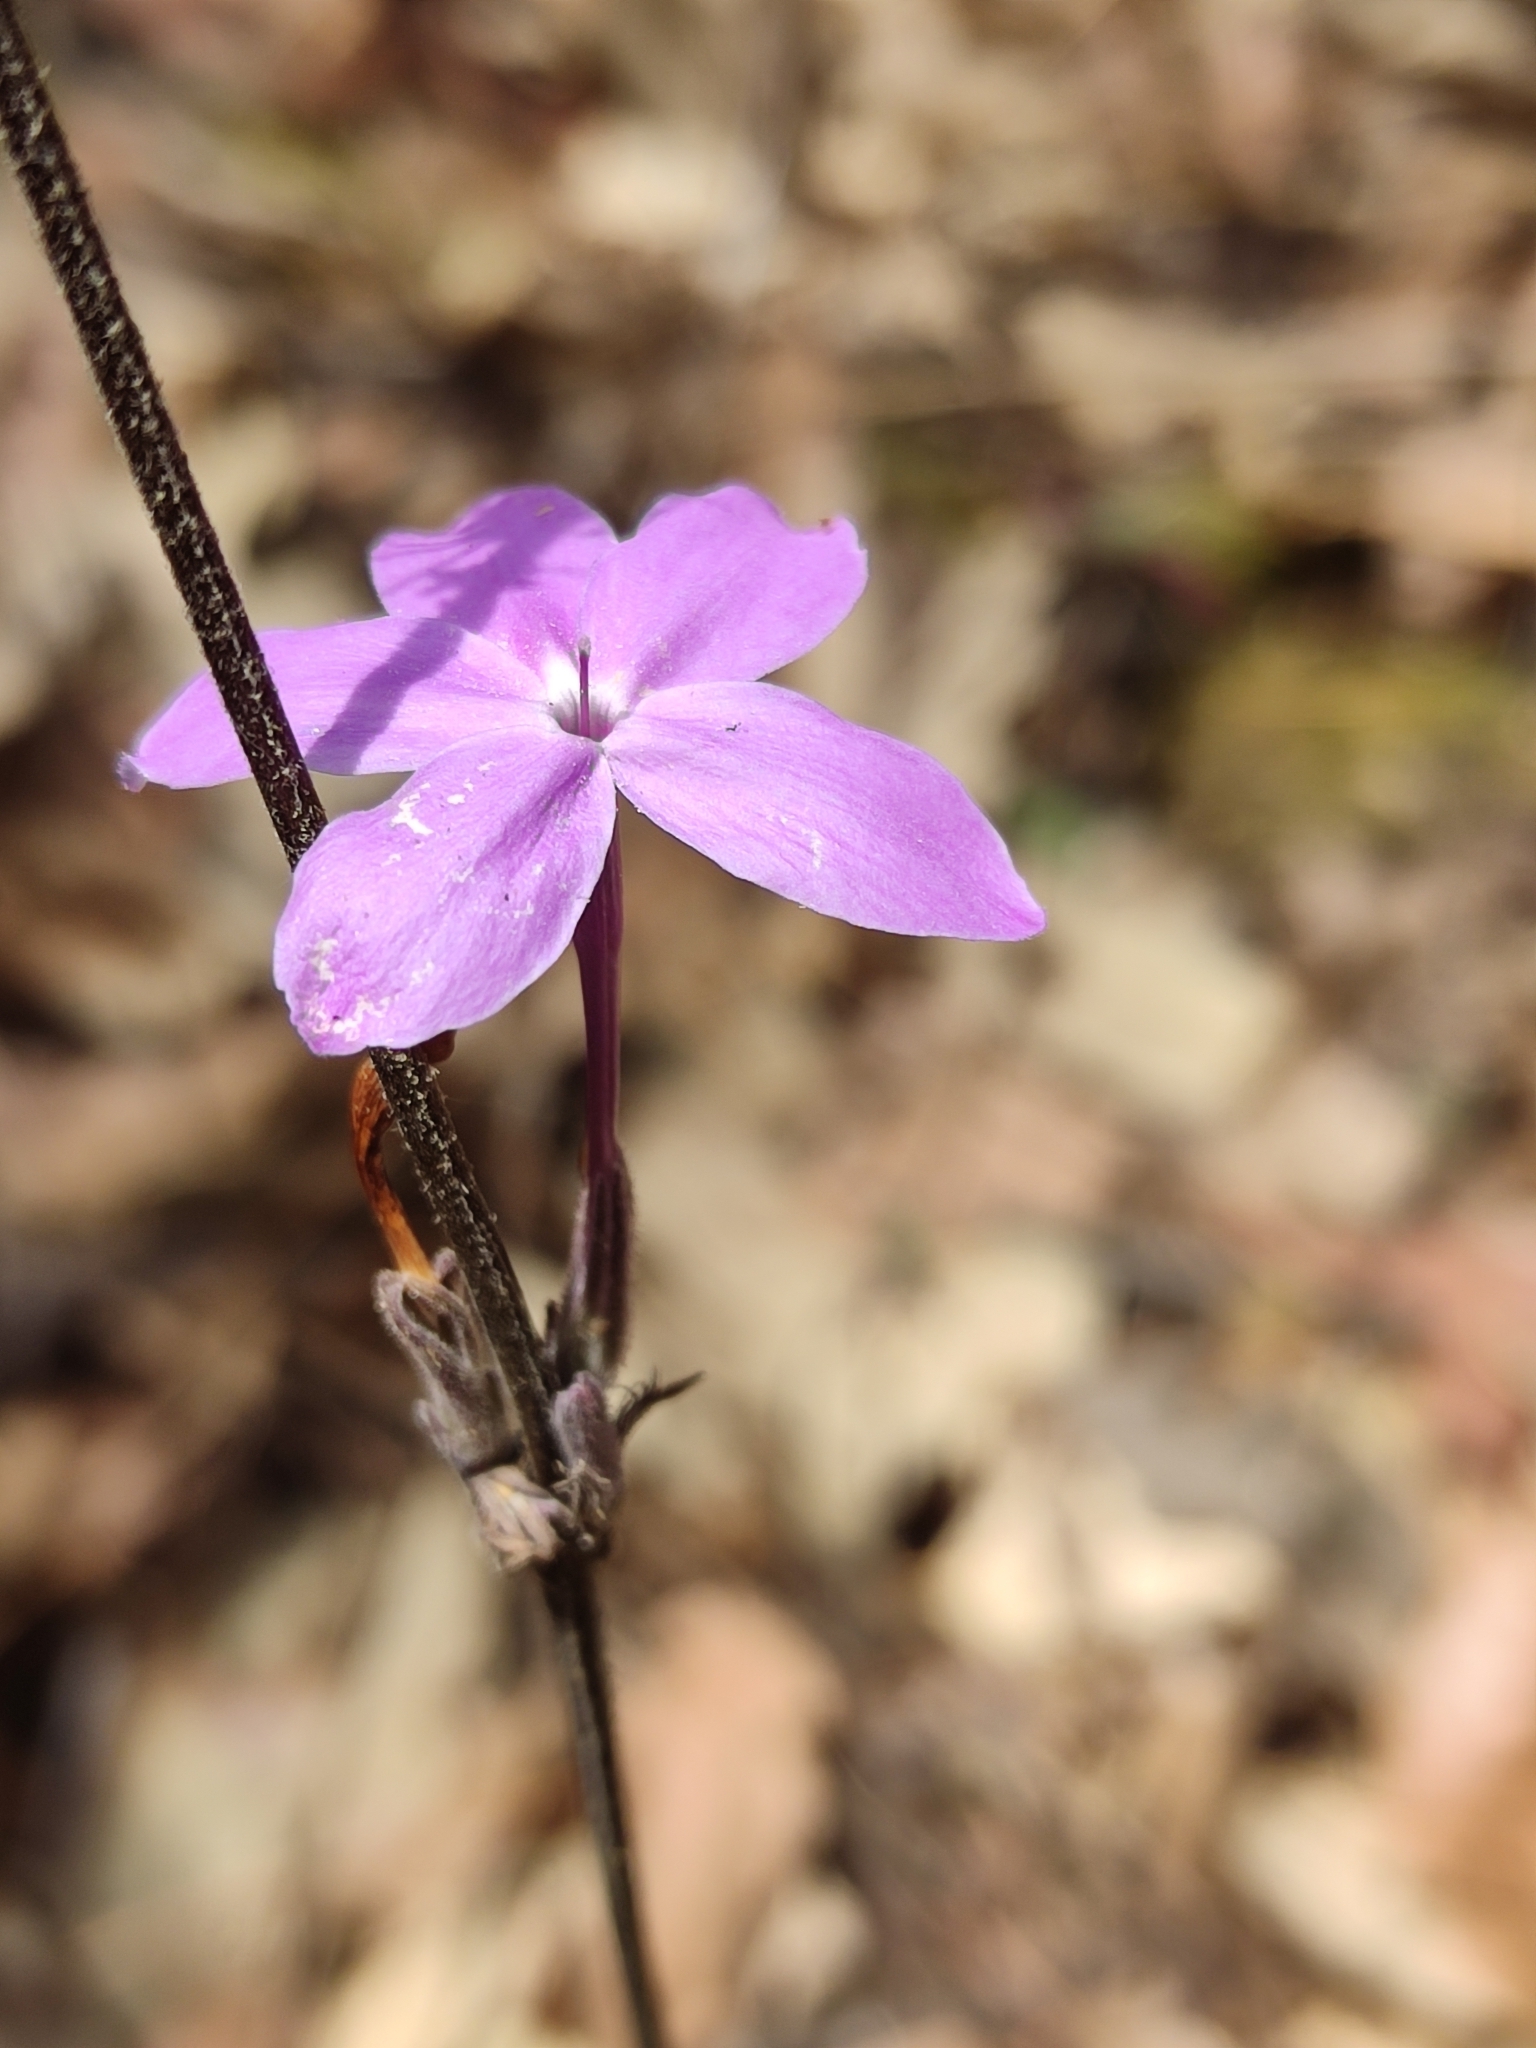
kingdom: Plantae
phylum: Tracheophyta
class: Magnoliopsida
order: Lamiales
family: Acanthaceae
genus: Pseuderanthemum
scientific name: Pseuderanthemum praecox
